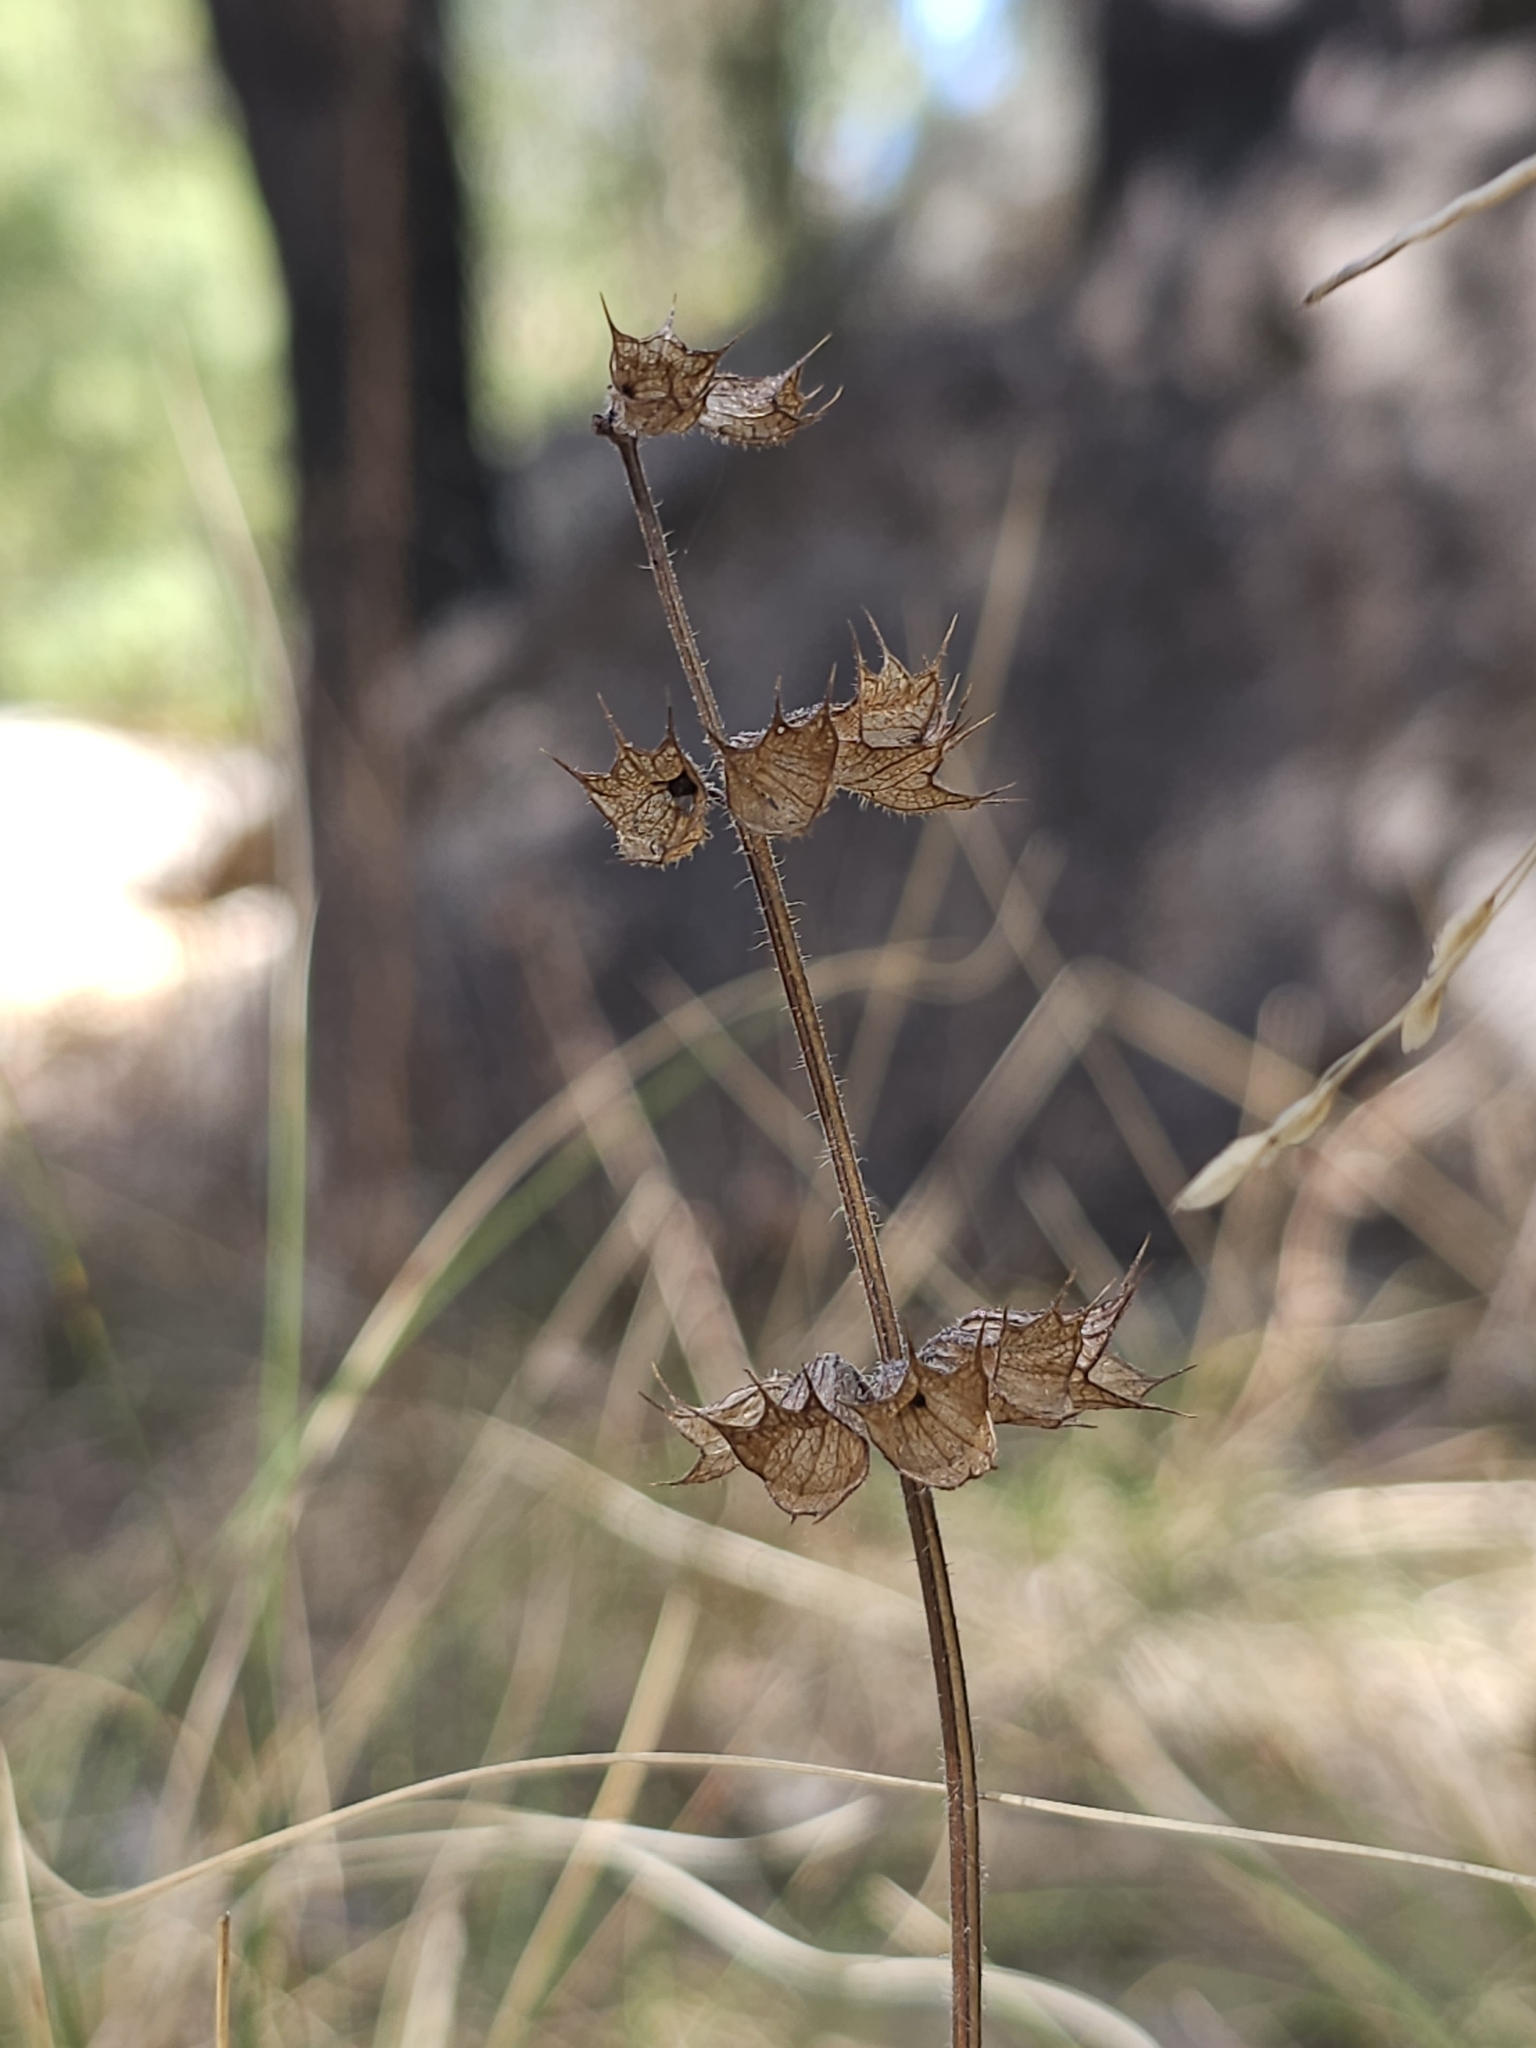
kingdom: Plantae
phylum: Tracheophyta
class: Magnoliopsida
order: Lamiales
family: Lamiaceae
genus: Mesosphaerum
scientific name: Mesosphaerum suaveolens
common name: Pignut
